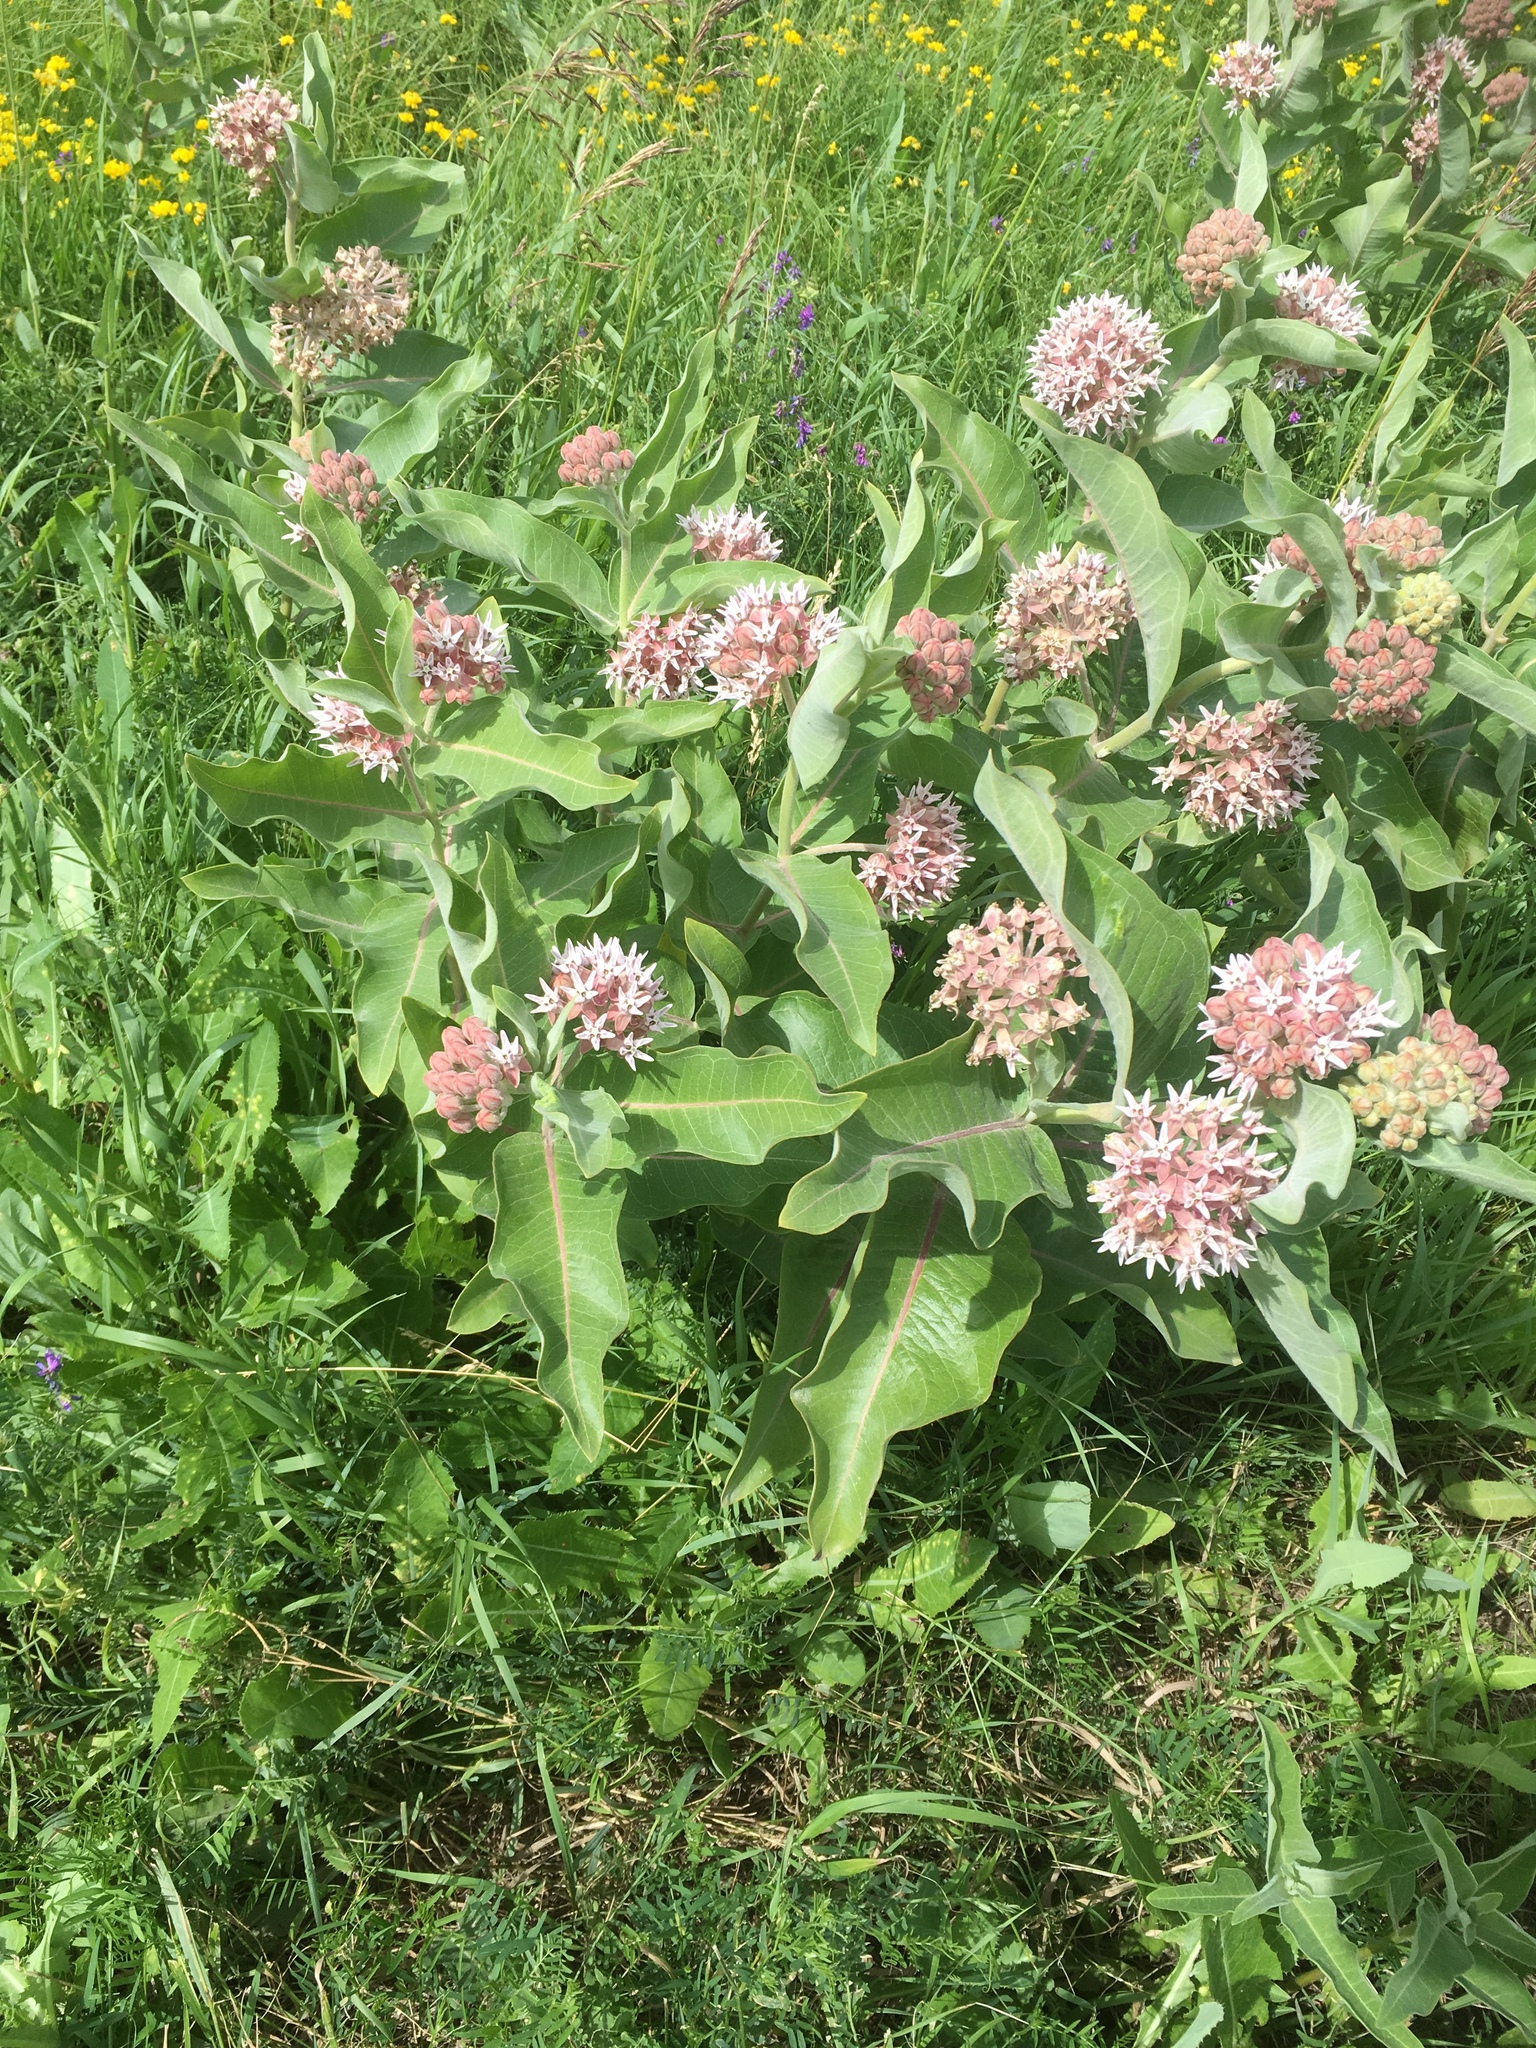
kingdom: Plantae
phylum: Tracheophyta
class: Magnoliopsida
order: Gentianales
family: Apocynaceae
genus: Asclepias
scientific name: Asclepias speciosa
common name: Showy milkweed
